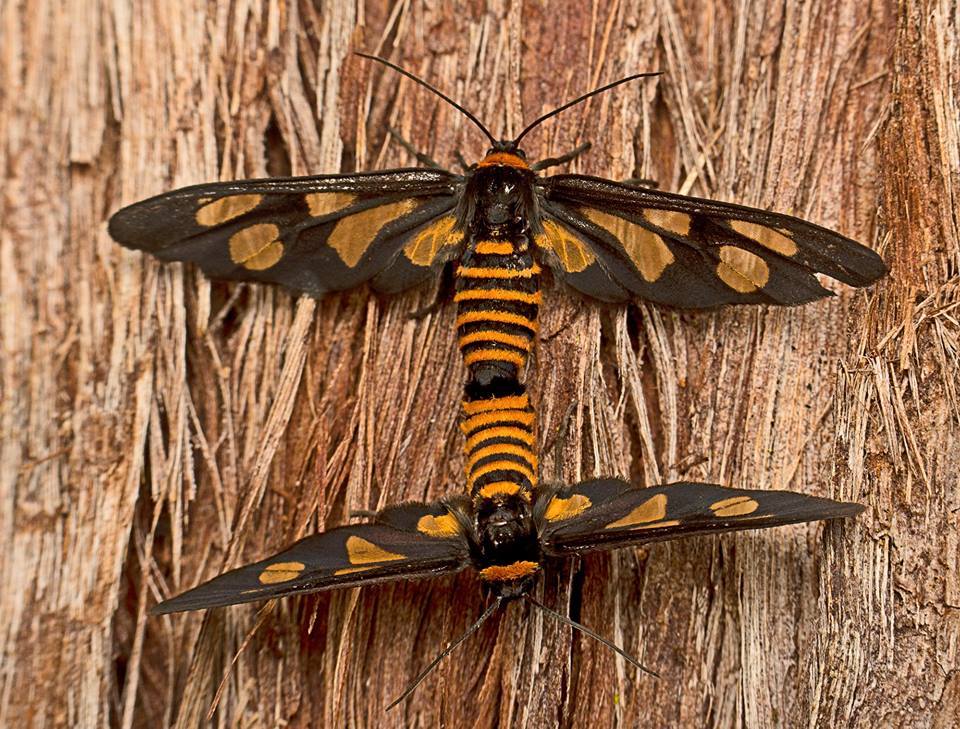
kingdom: Animalia
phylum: Arthropoda
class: Insecta
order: Lepidoptera
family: Erebidae
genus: Eressa
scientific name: Eressa angustipenna
